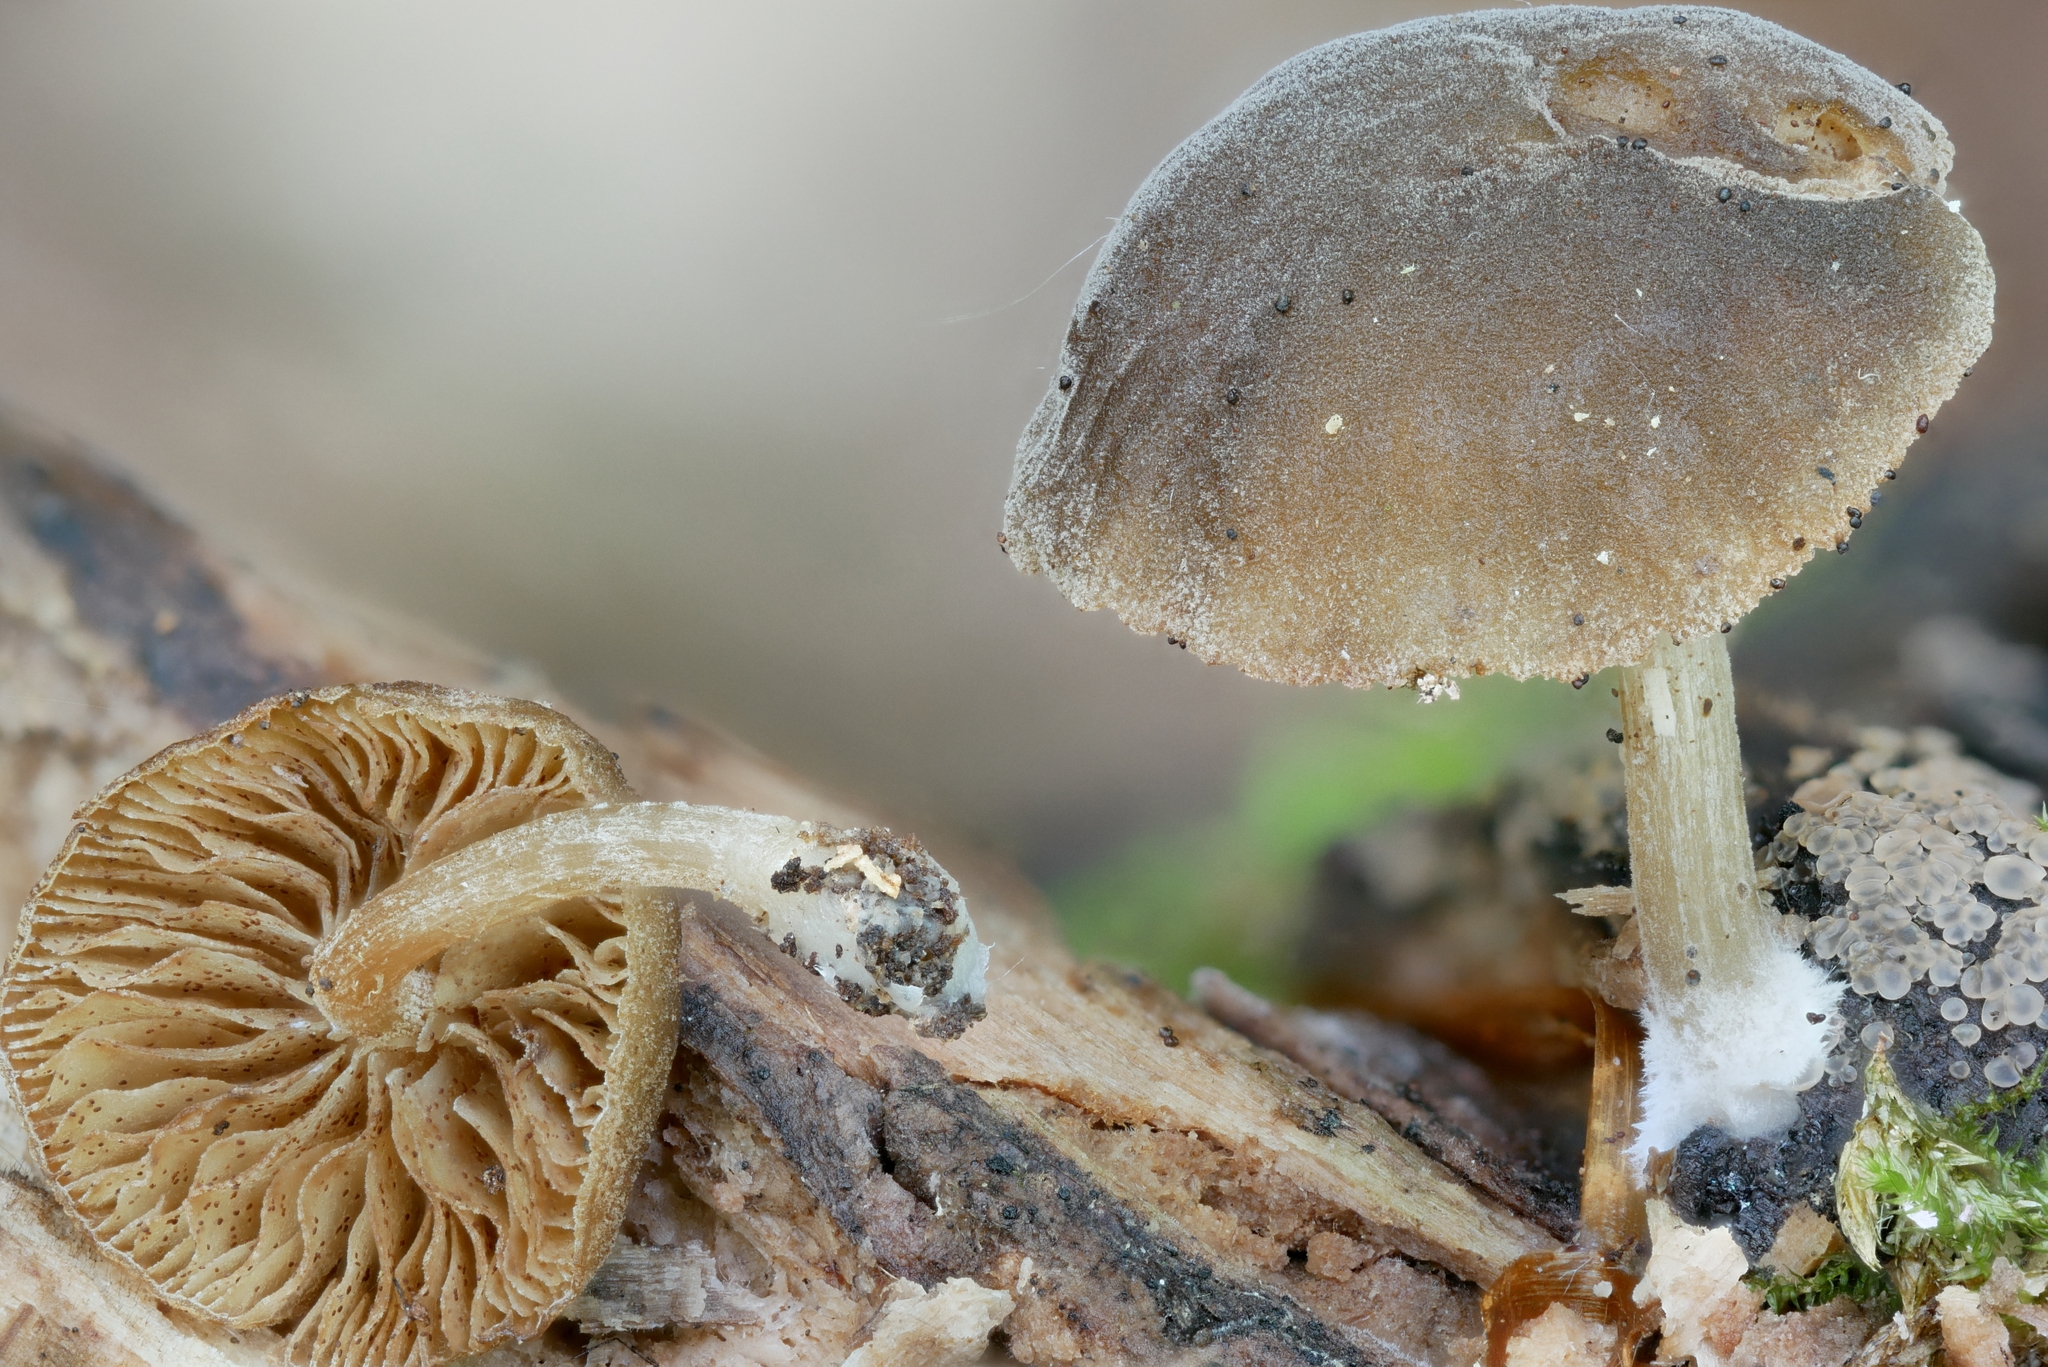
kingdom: Fungi
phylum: Basidiomycota
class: Agaricomycetes
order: Agaricales
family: Crepidotaceae
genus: Simocybe
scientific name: Simocybe centunculus
